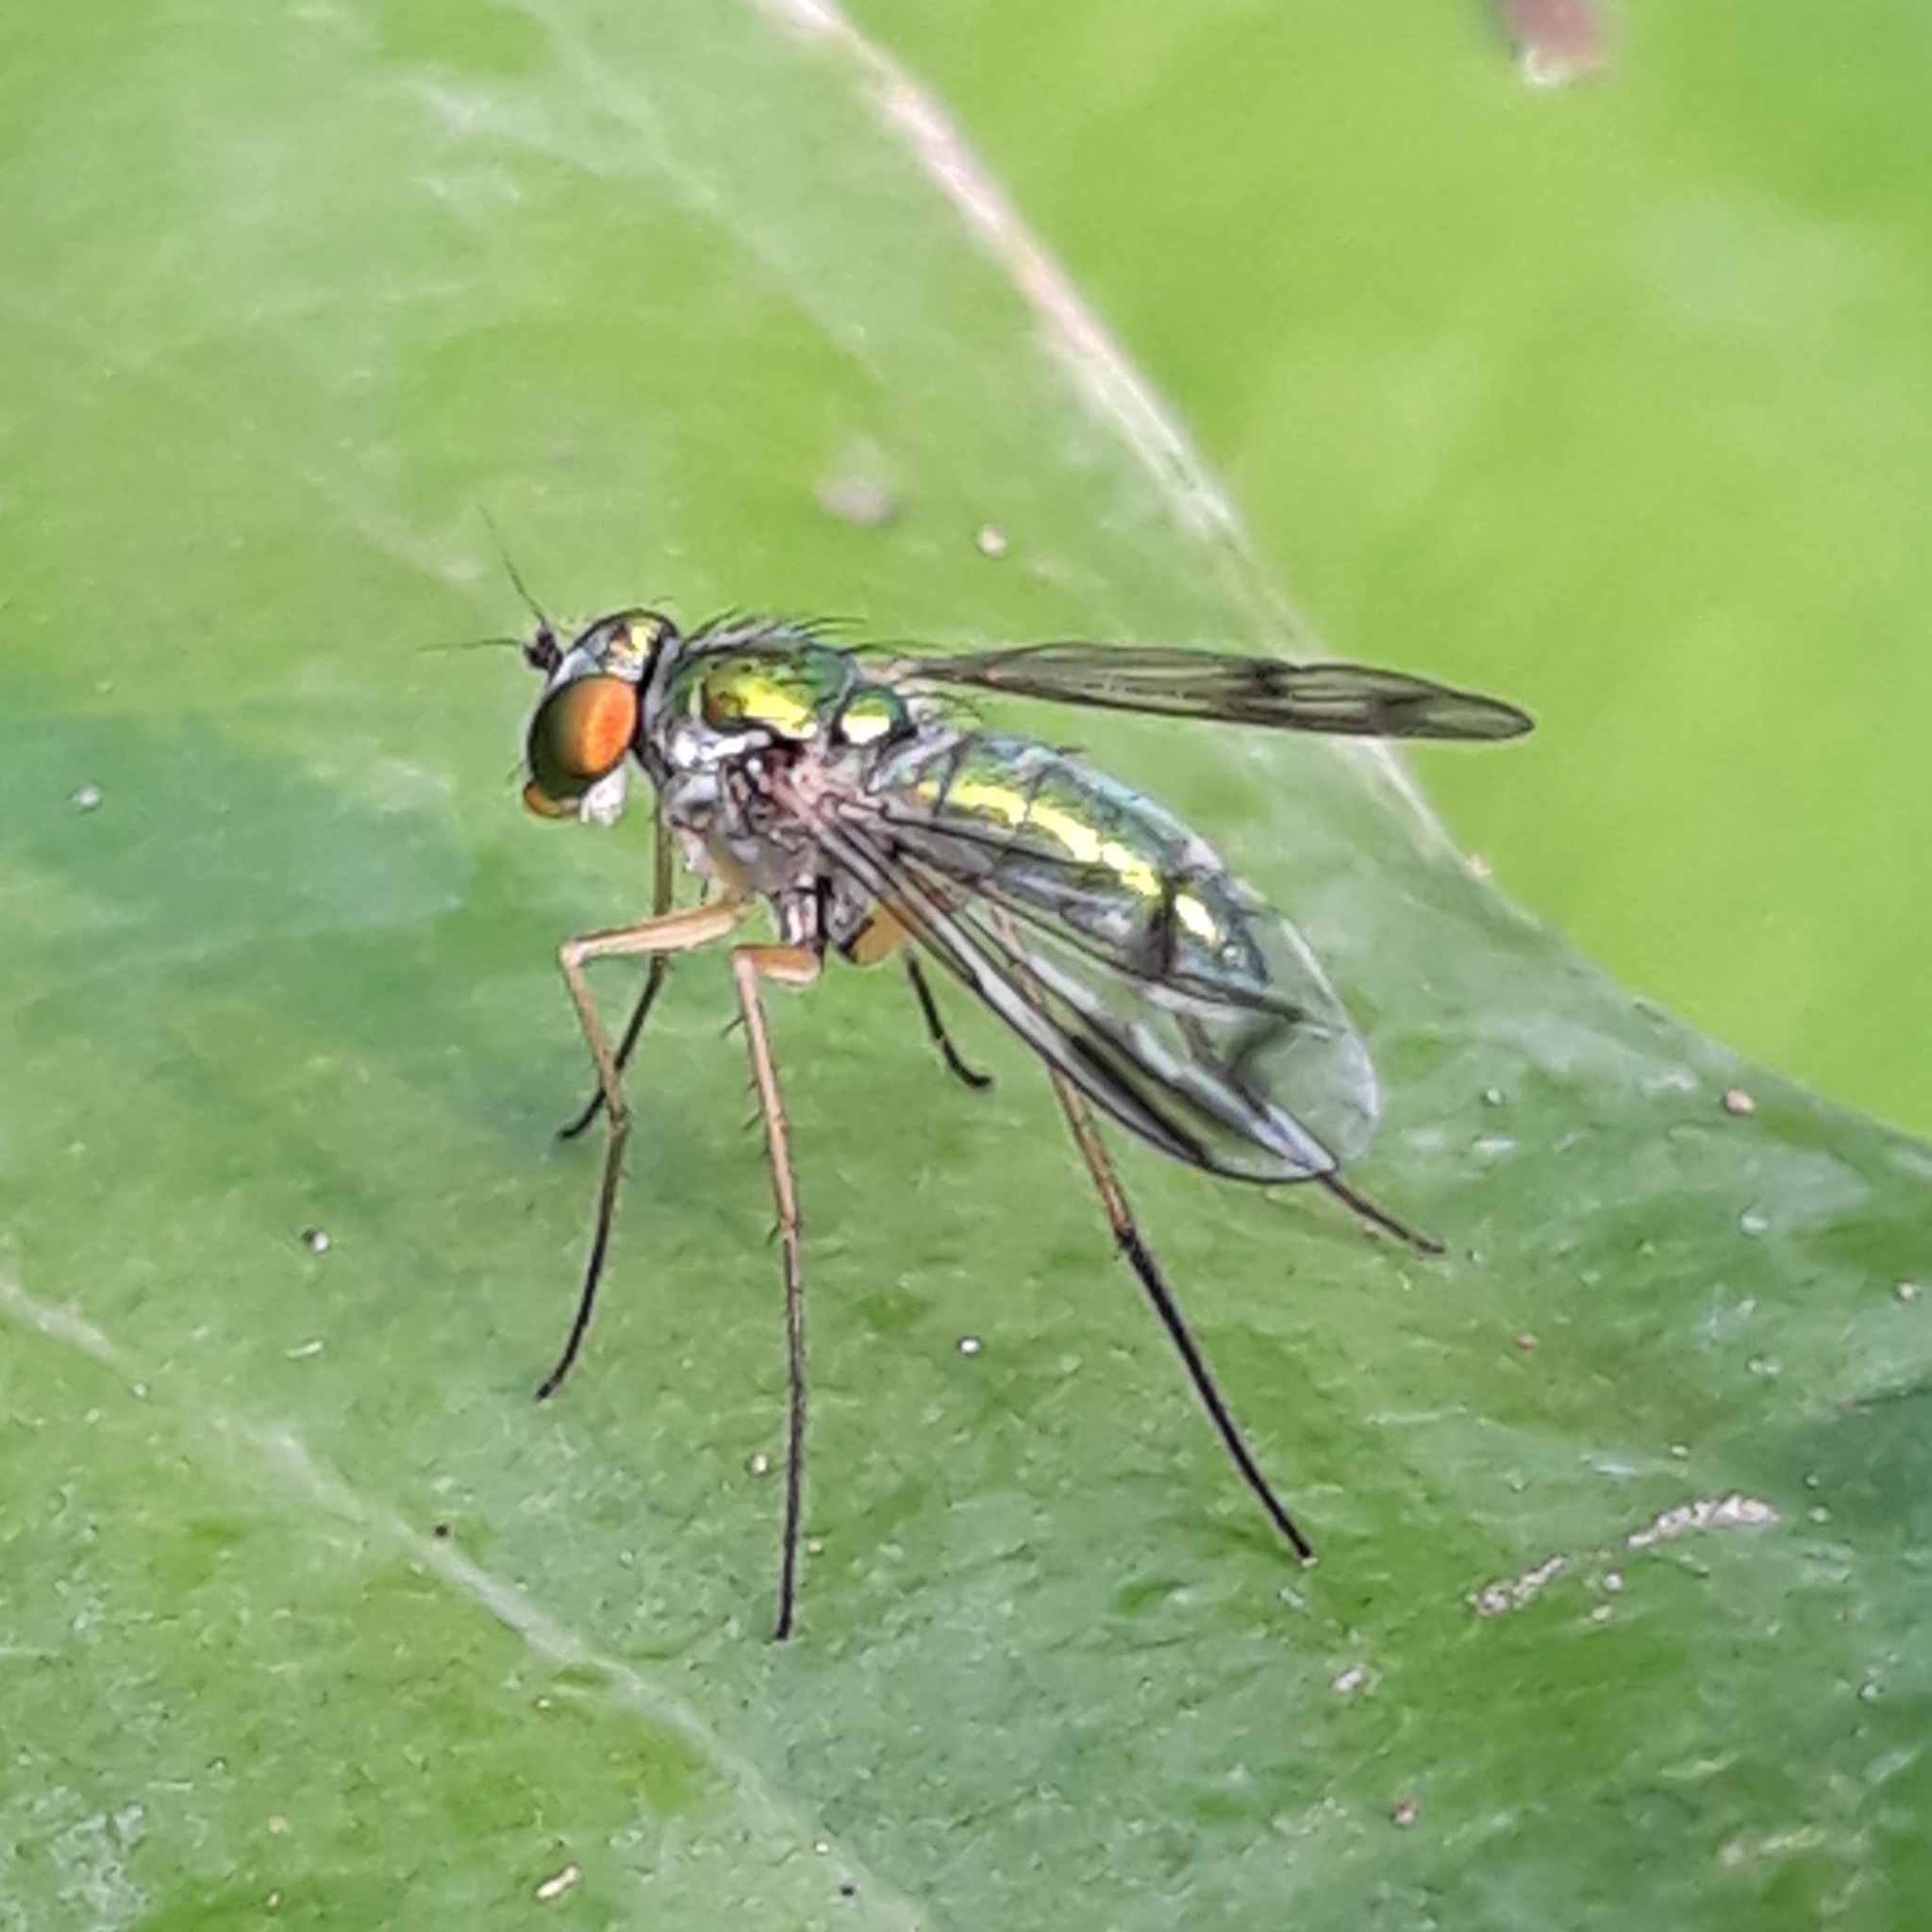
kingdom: Animalia
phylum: Arthropoda
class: Insecta
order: Diptera
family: Dolichopodidae
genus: Condylostylus
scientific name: Condylostylus
